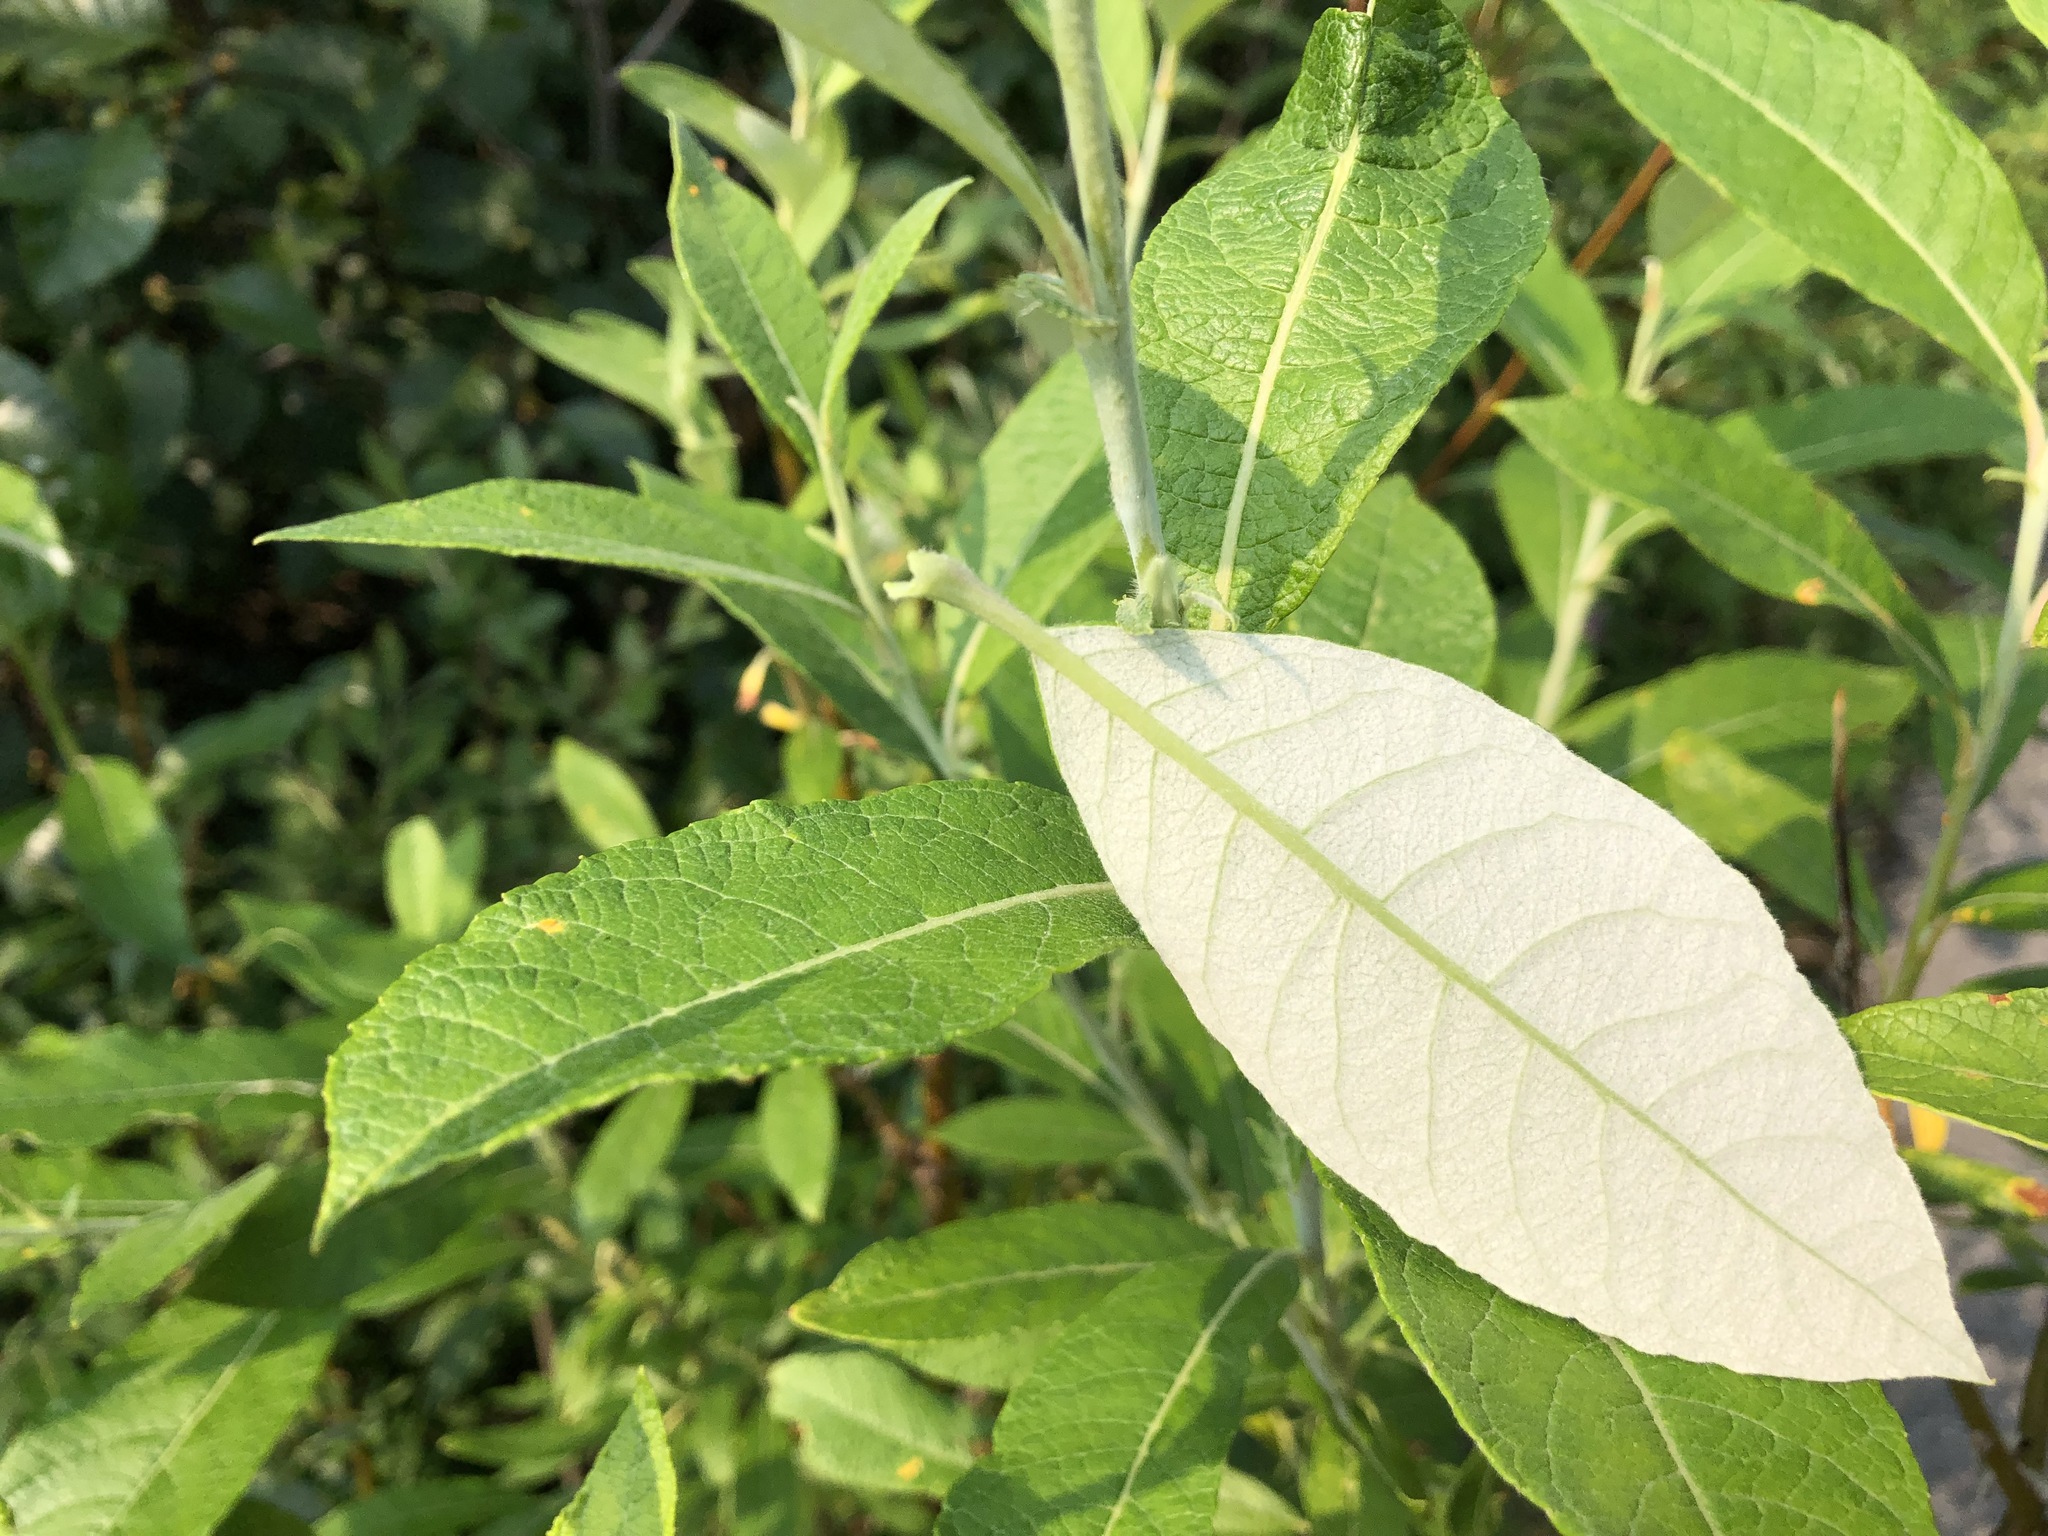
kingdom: Plantae
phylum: Tracheophyta
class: Magnoliopsida
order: Malpighiales
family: Salicaceae
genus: Salix
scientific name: Salix alaxensis
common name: Feltleaf willow
